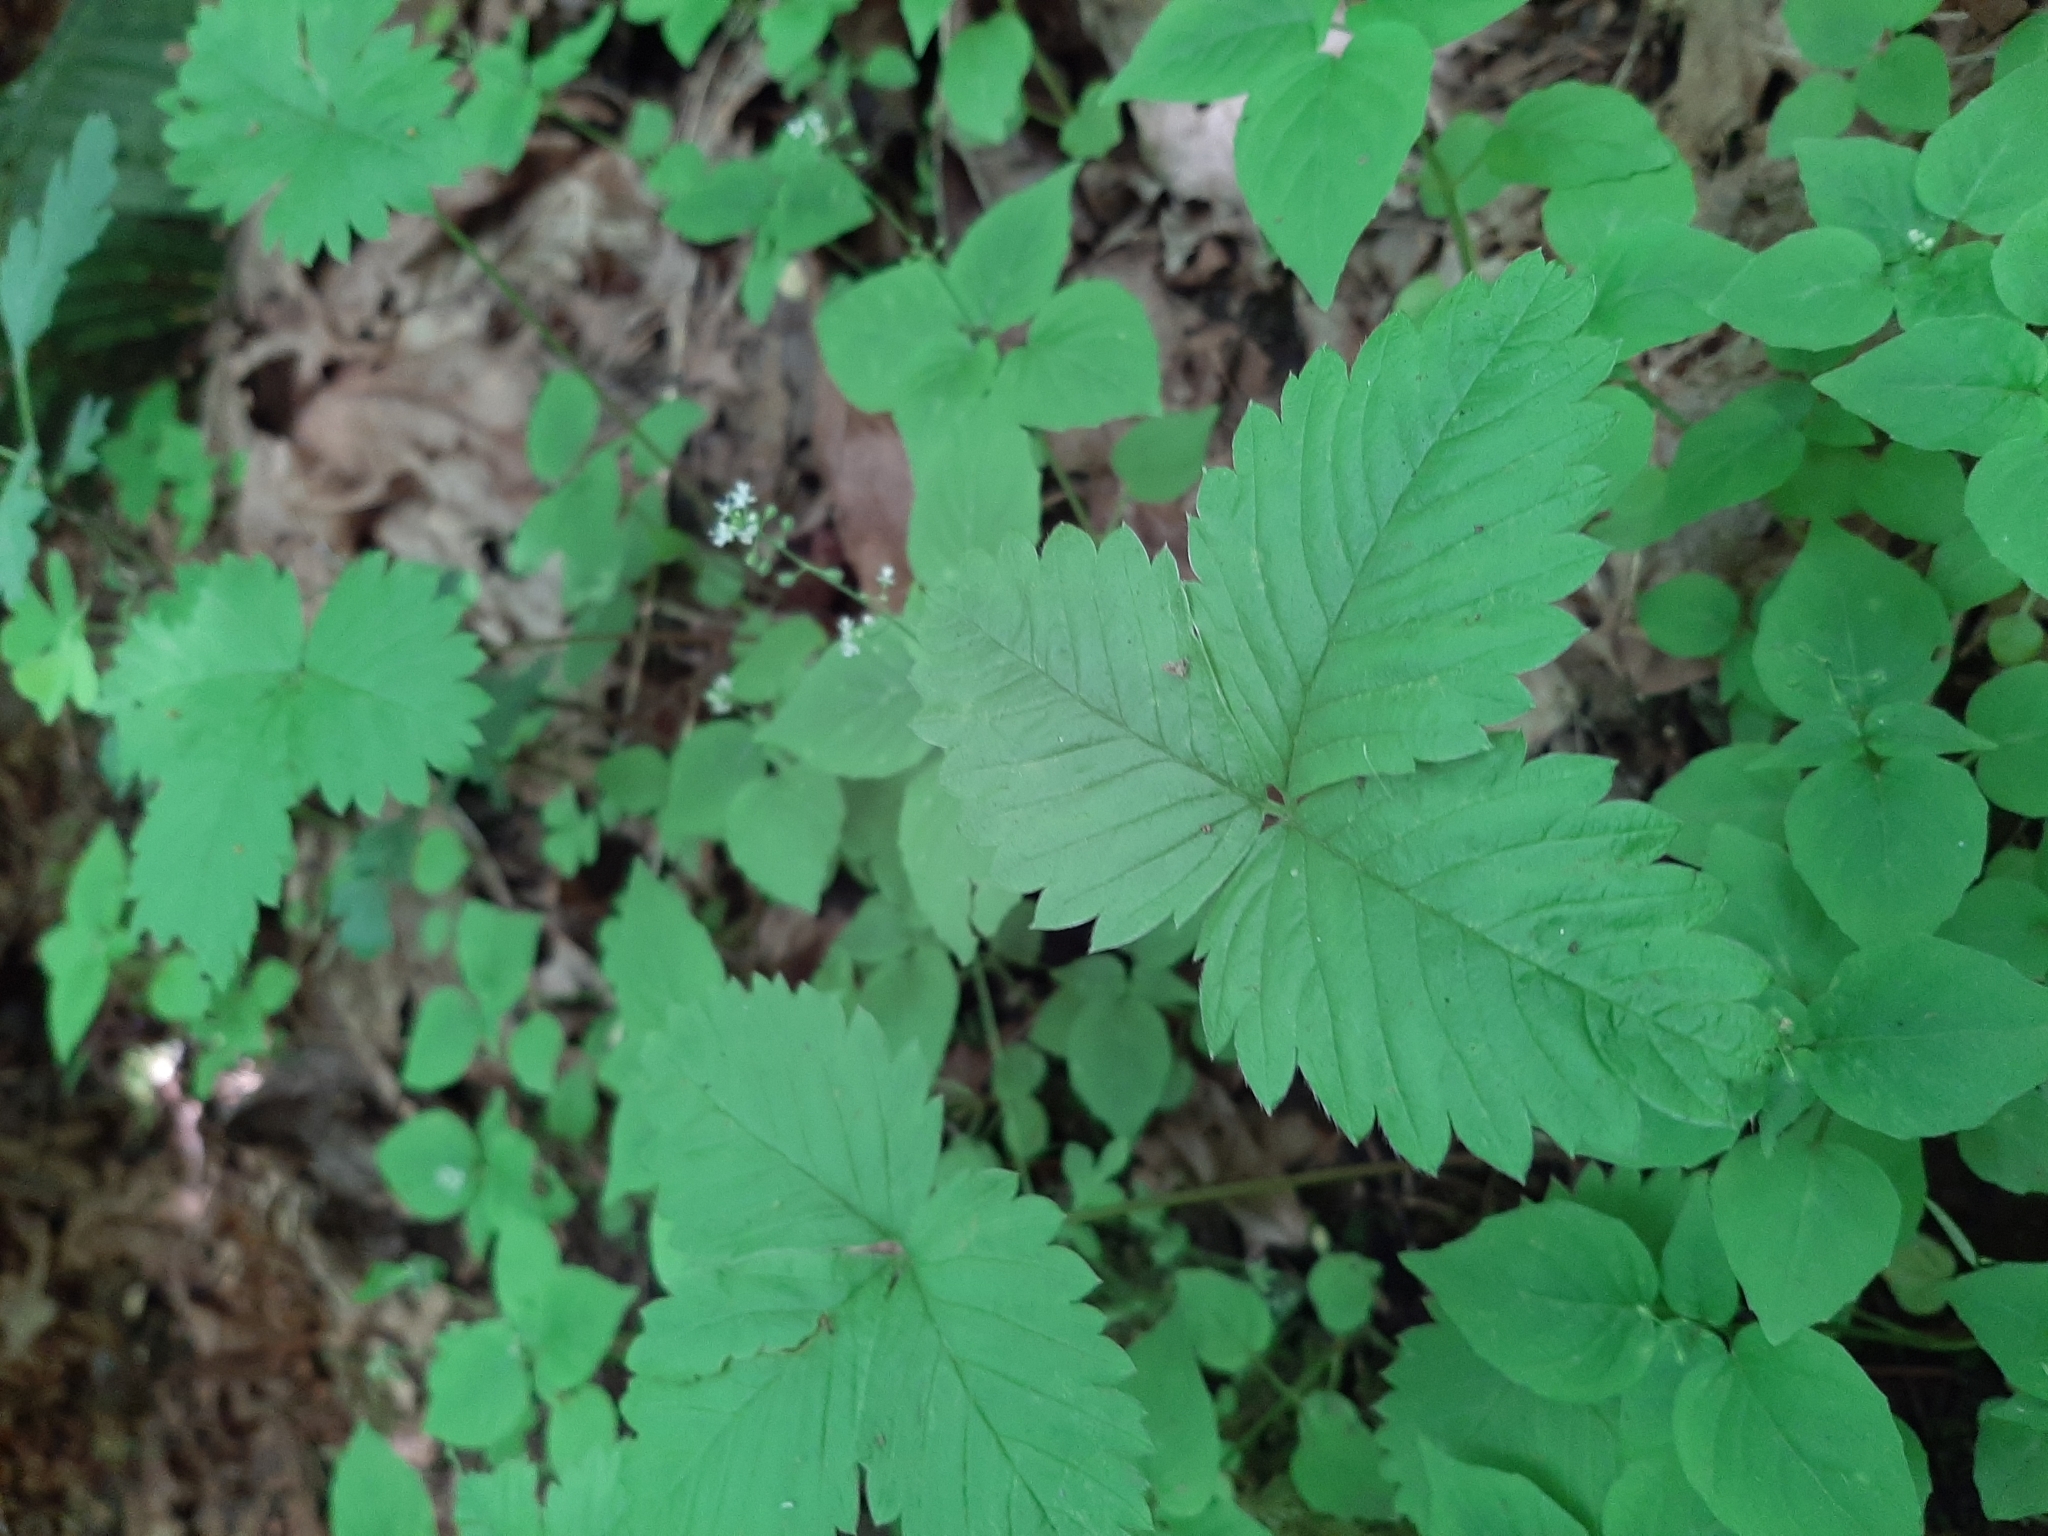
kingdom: Plantae
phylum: Tracheophyta
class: Magnoliopsida
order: Rosales
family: Rosaceae
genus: Fragaria
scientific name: Fragaria virginiana
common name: Thickleaved wild strawberry
